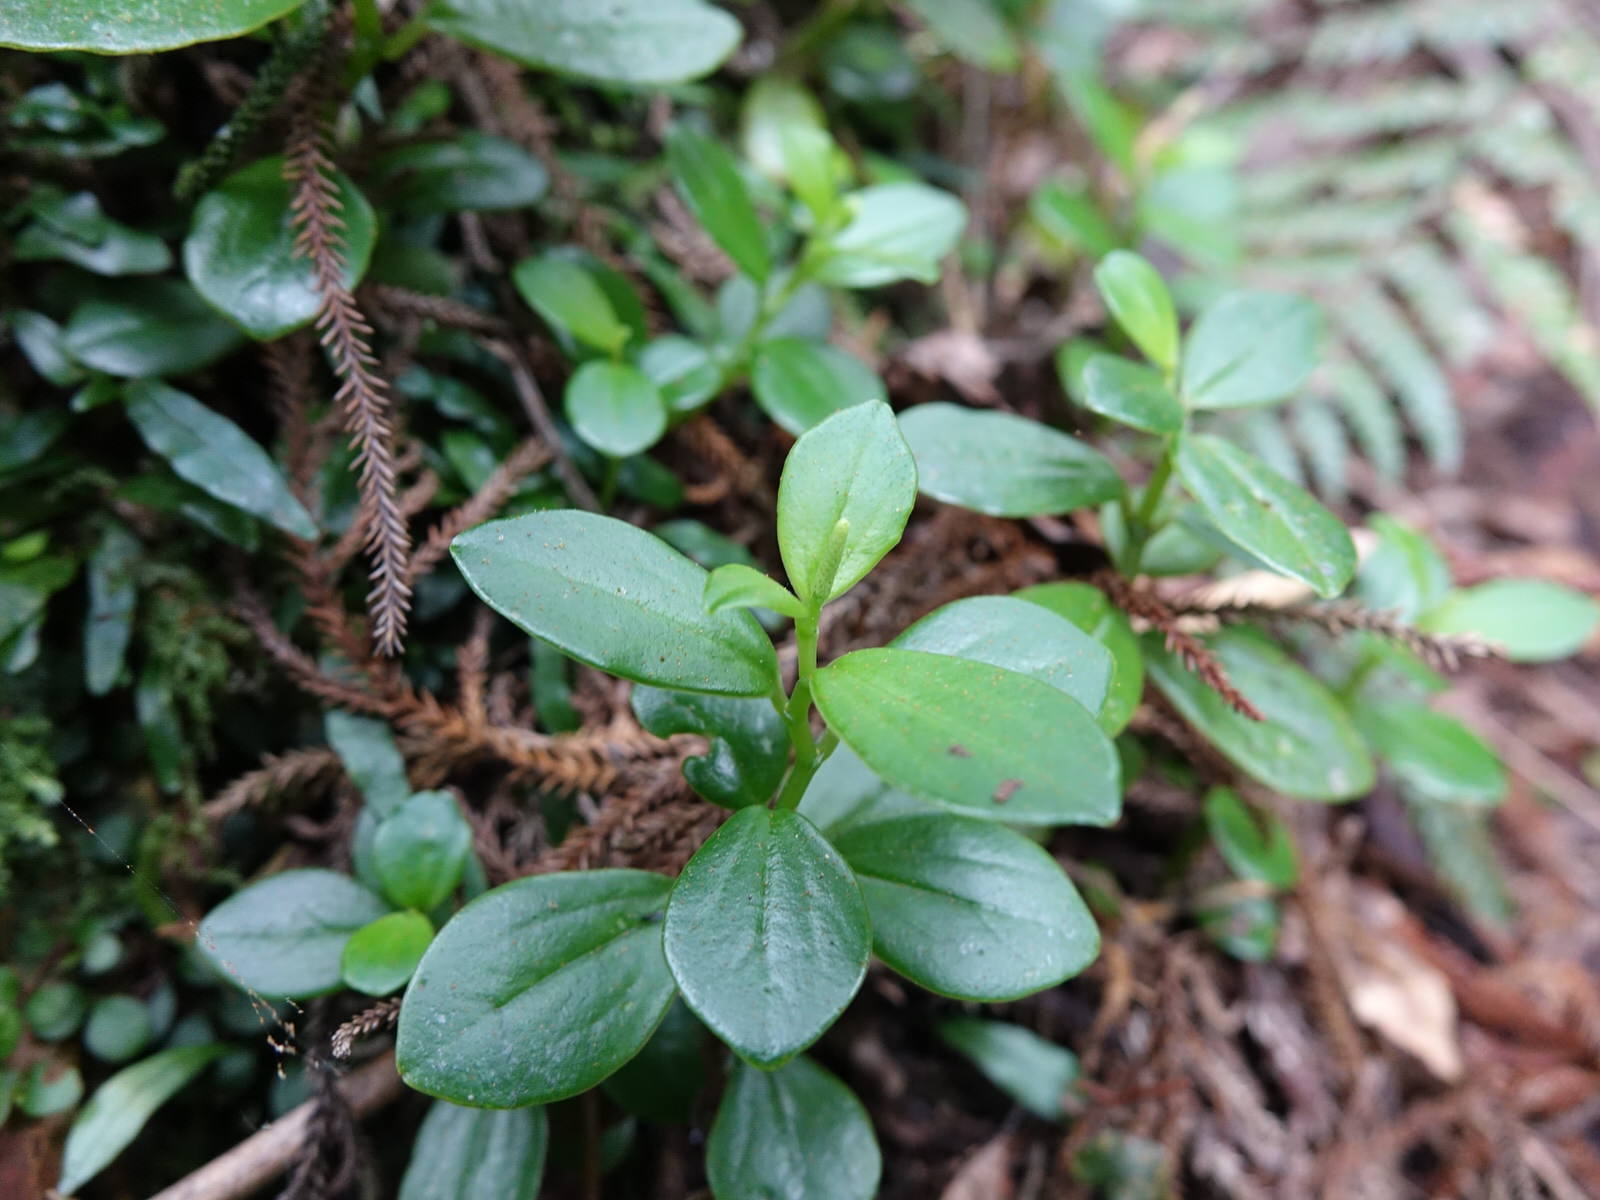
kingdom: Plantae
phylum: Tracheophyta
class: Magnoliopsida
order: Piperales
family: Piperaceae
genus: Peperomia
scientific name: Peperomia urvilleana
